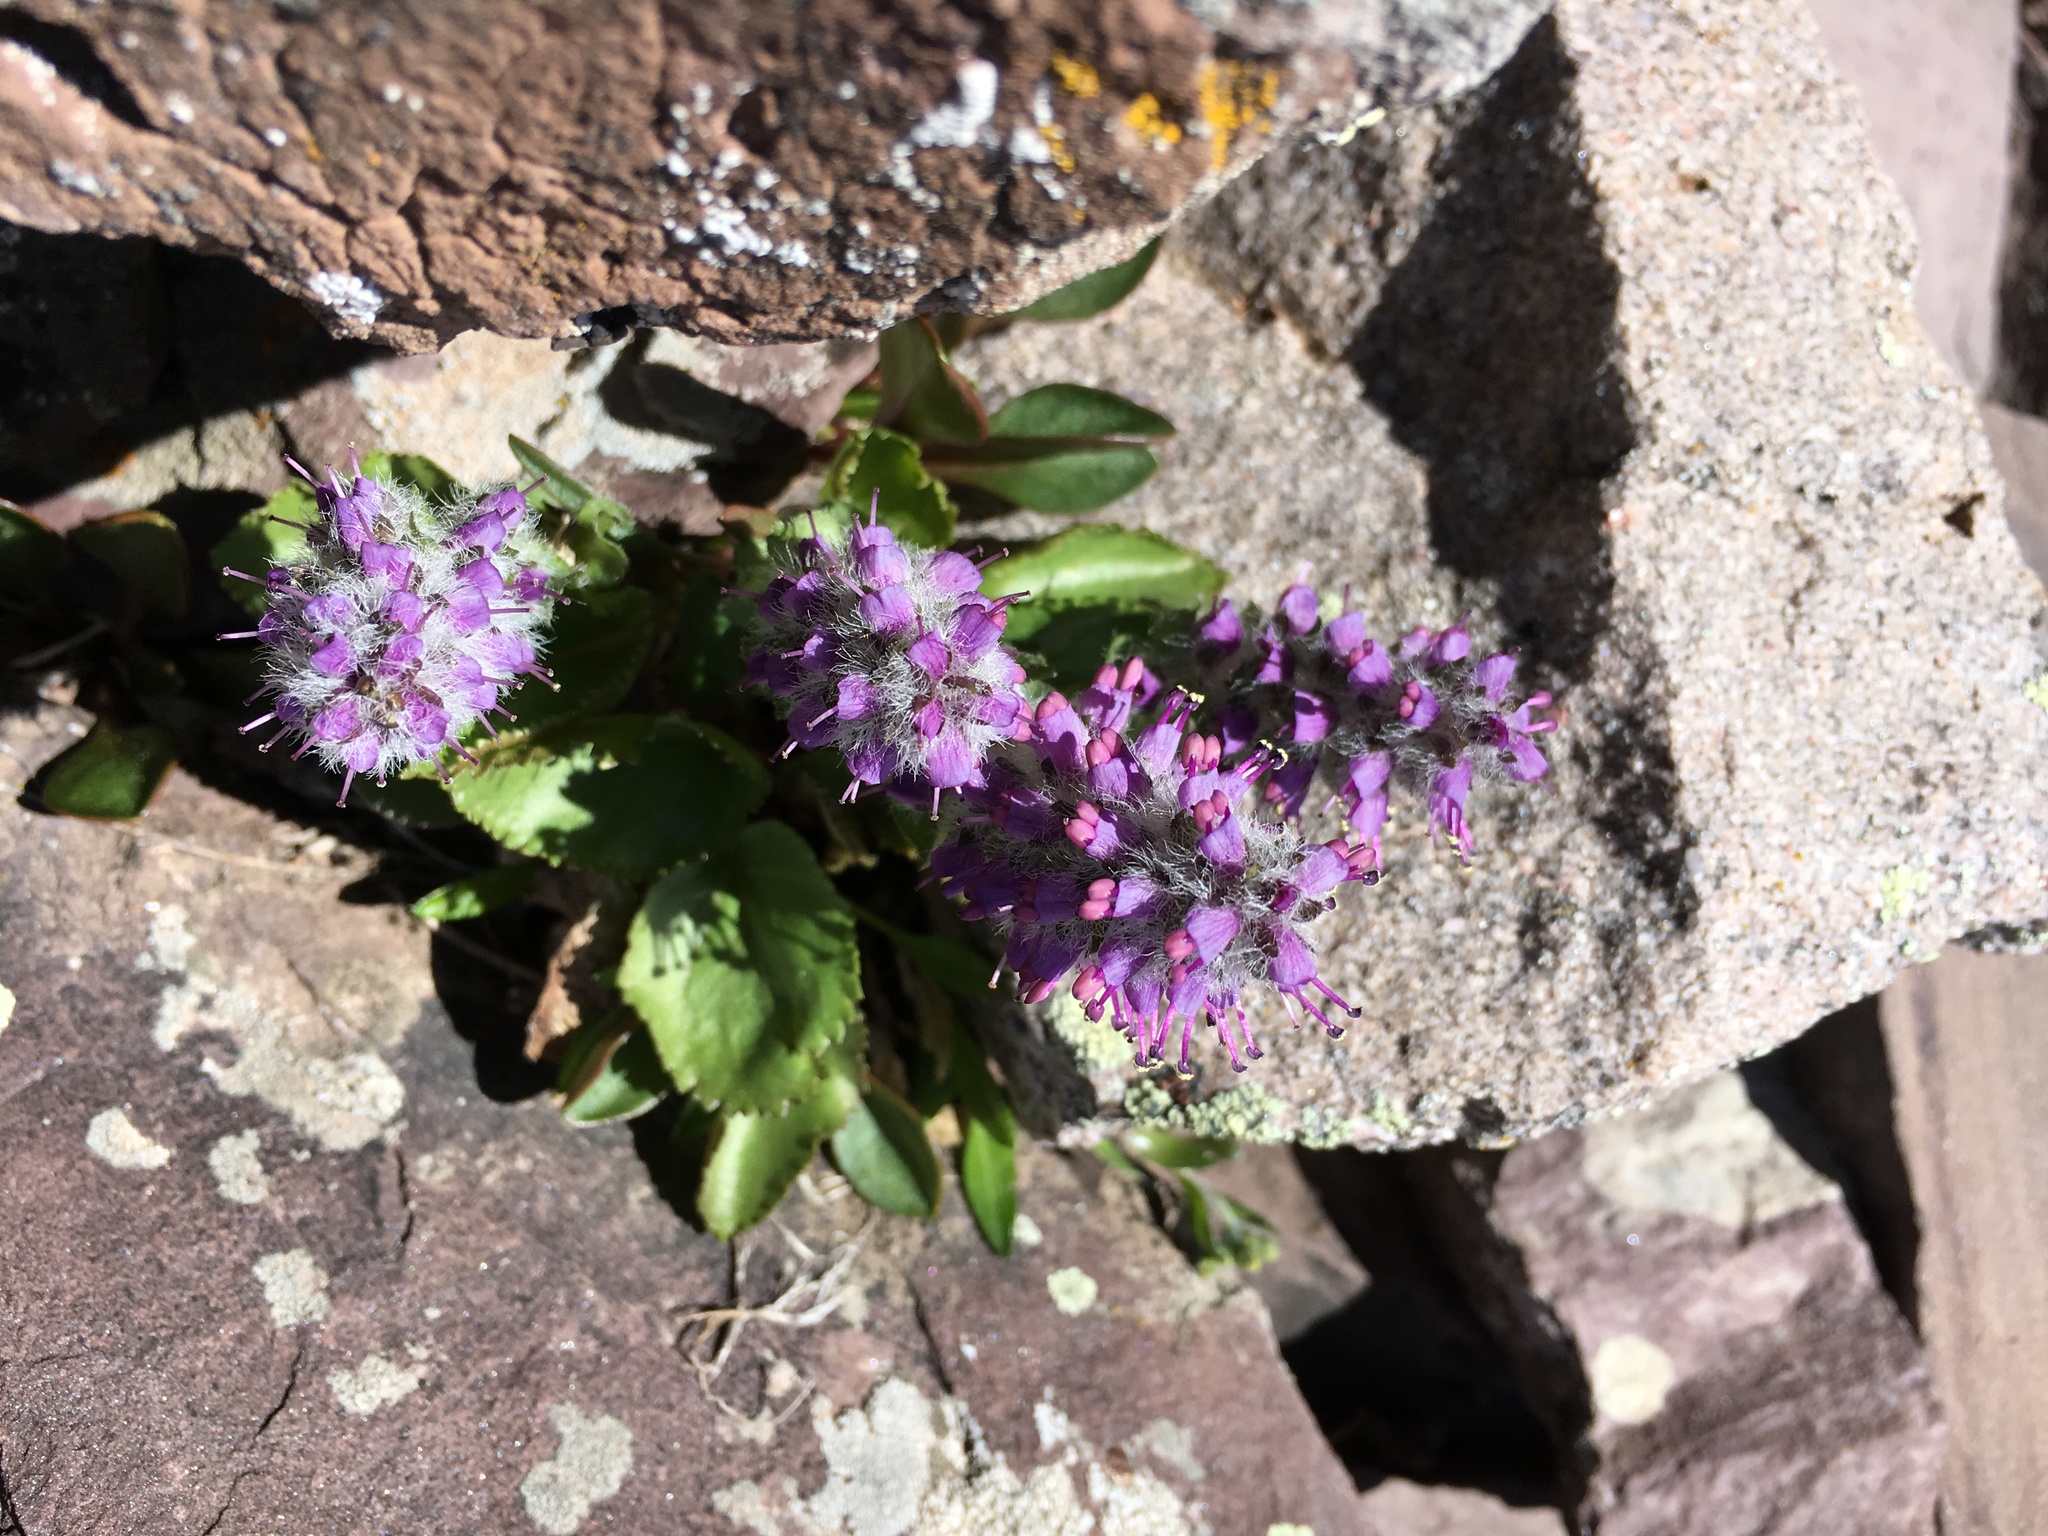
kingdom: Plantae
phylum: Tracheophyta
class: Magnoliopsida
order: Lamiales
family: Plantaginaceae
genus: Synthyris
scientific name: Synthyris alpina
